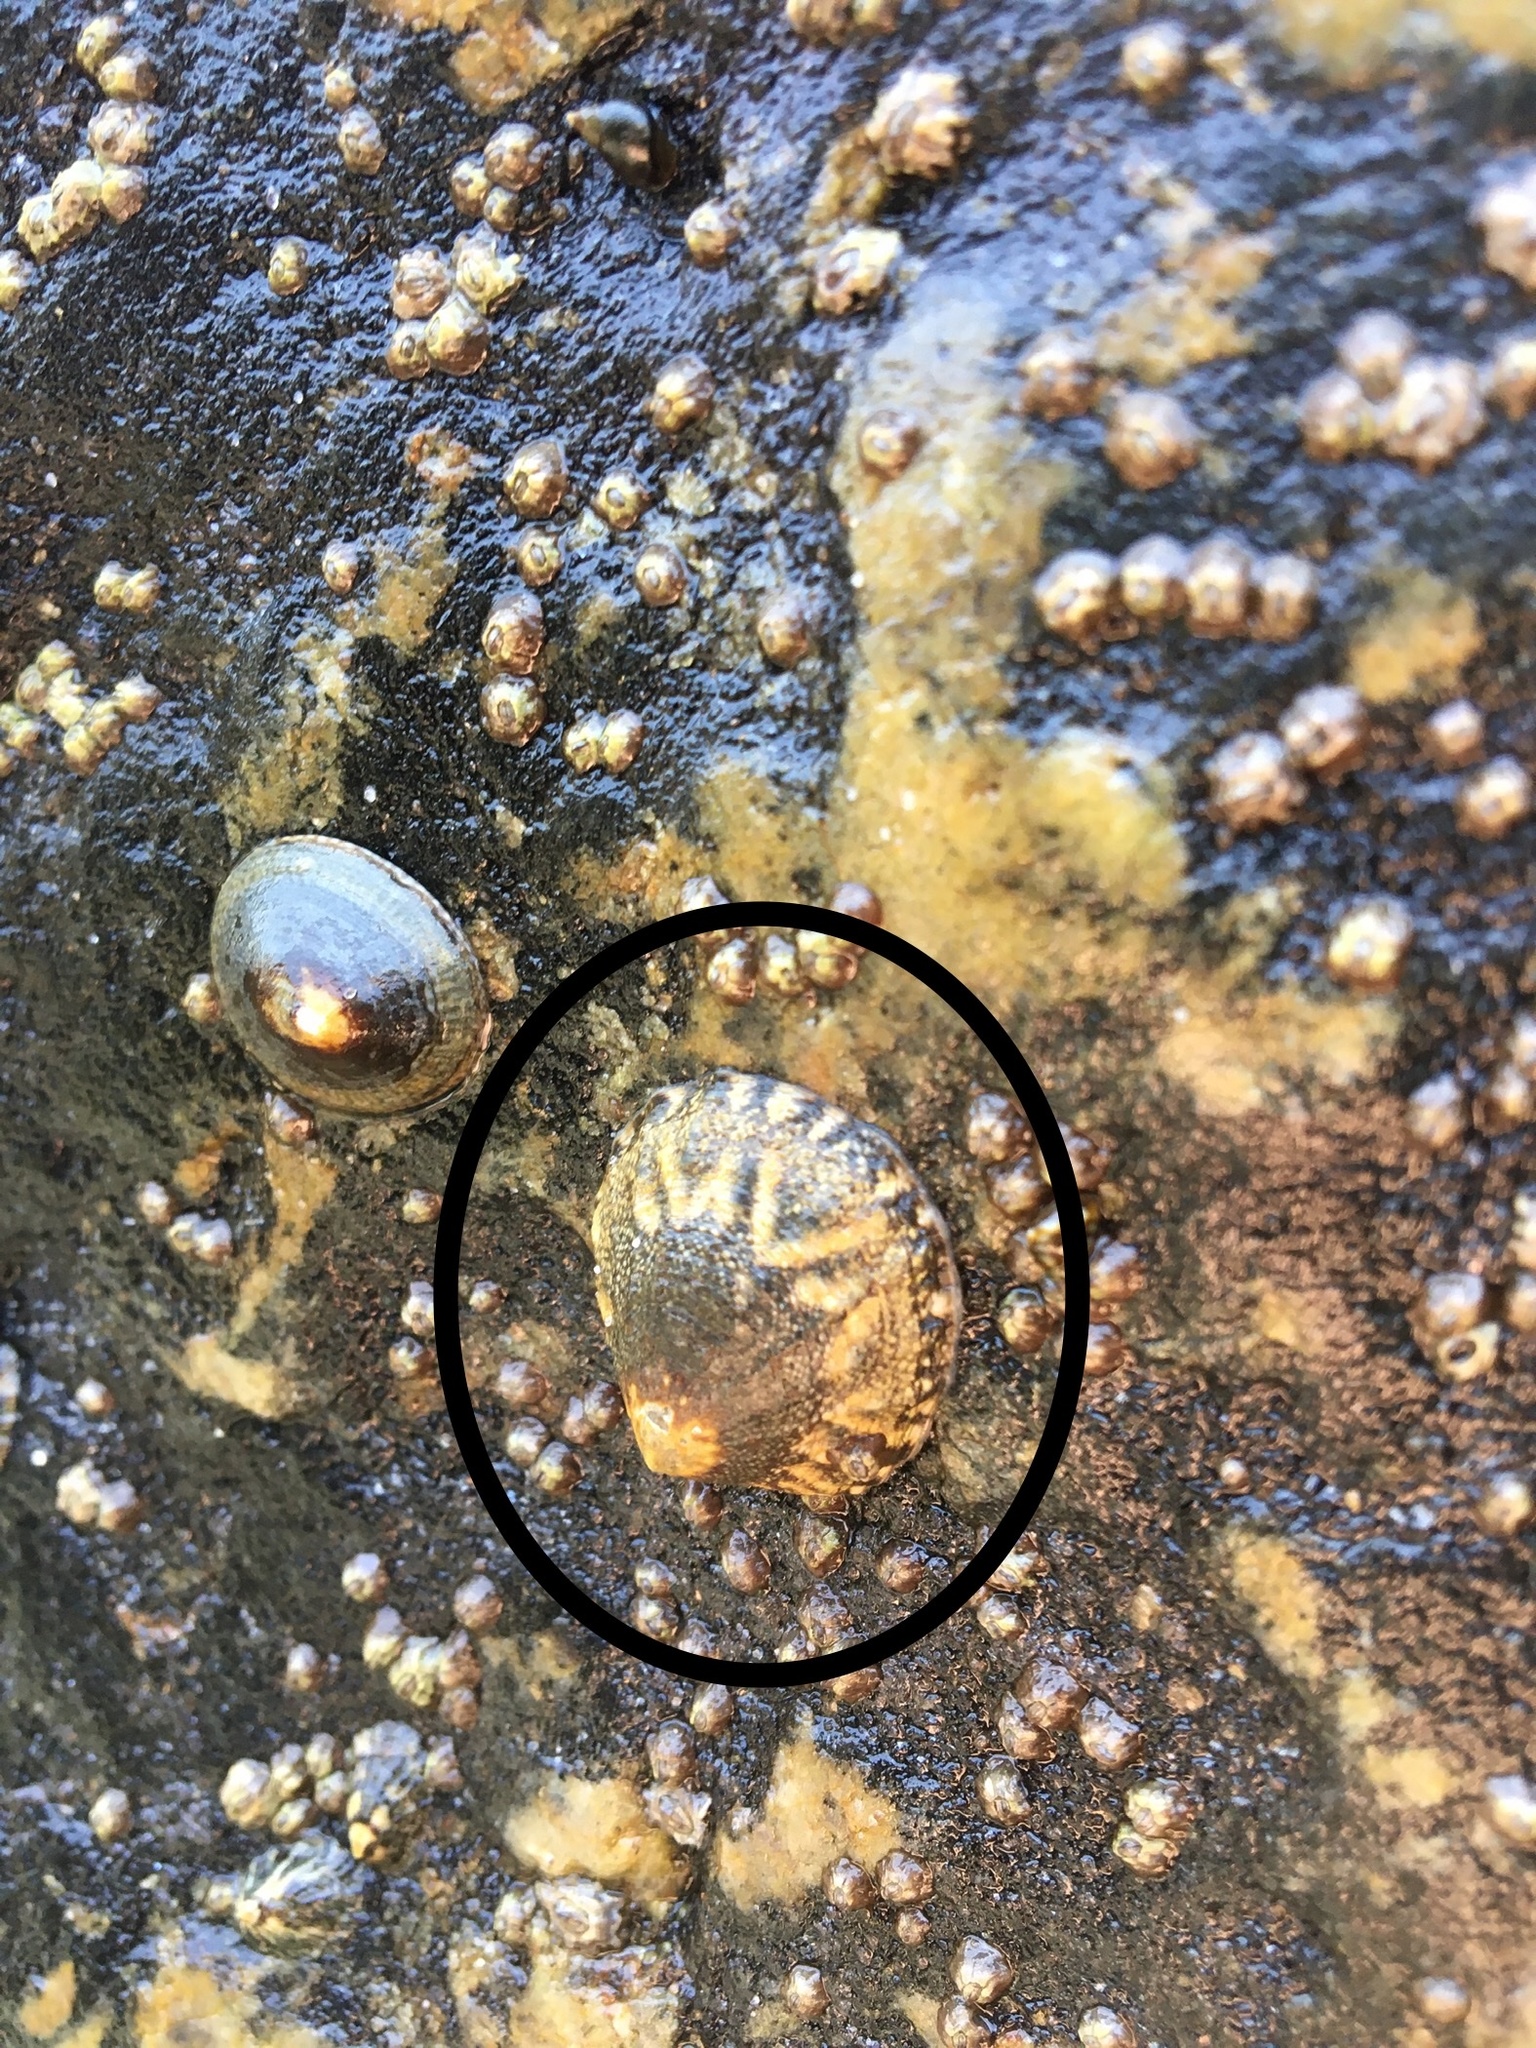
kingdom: Animalia
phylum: Mollusca
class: Gastropoda
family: Lottiidae
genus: Lottia
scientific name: Lottia austrodigitalis
